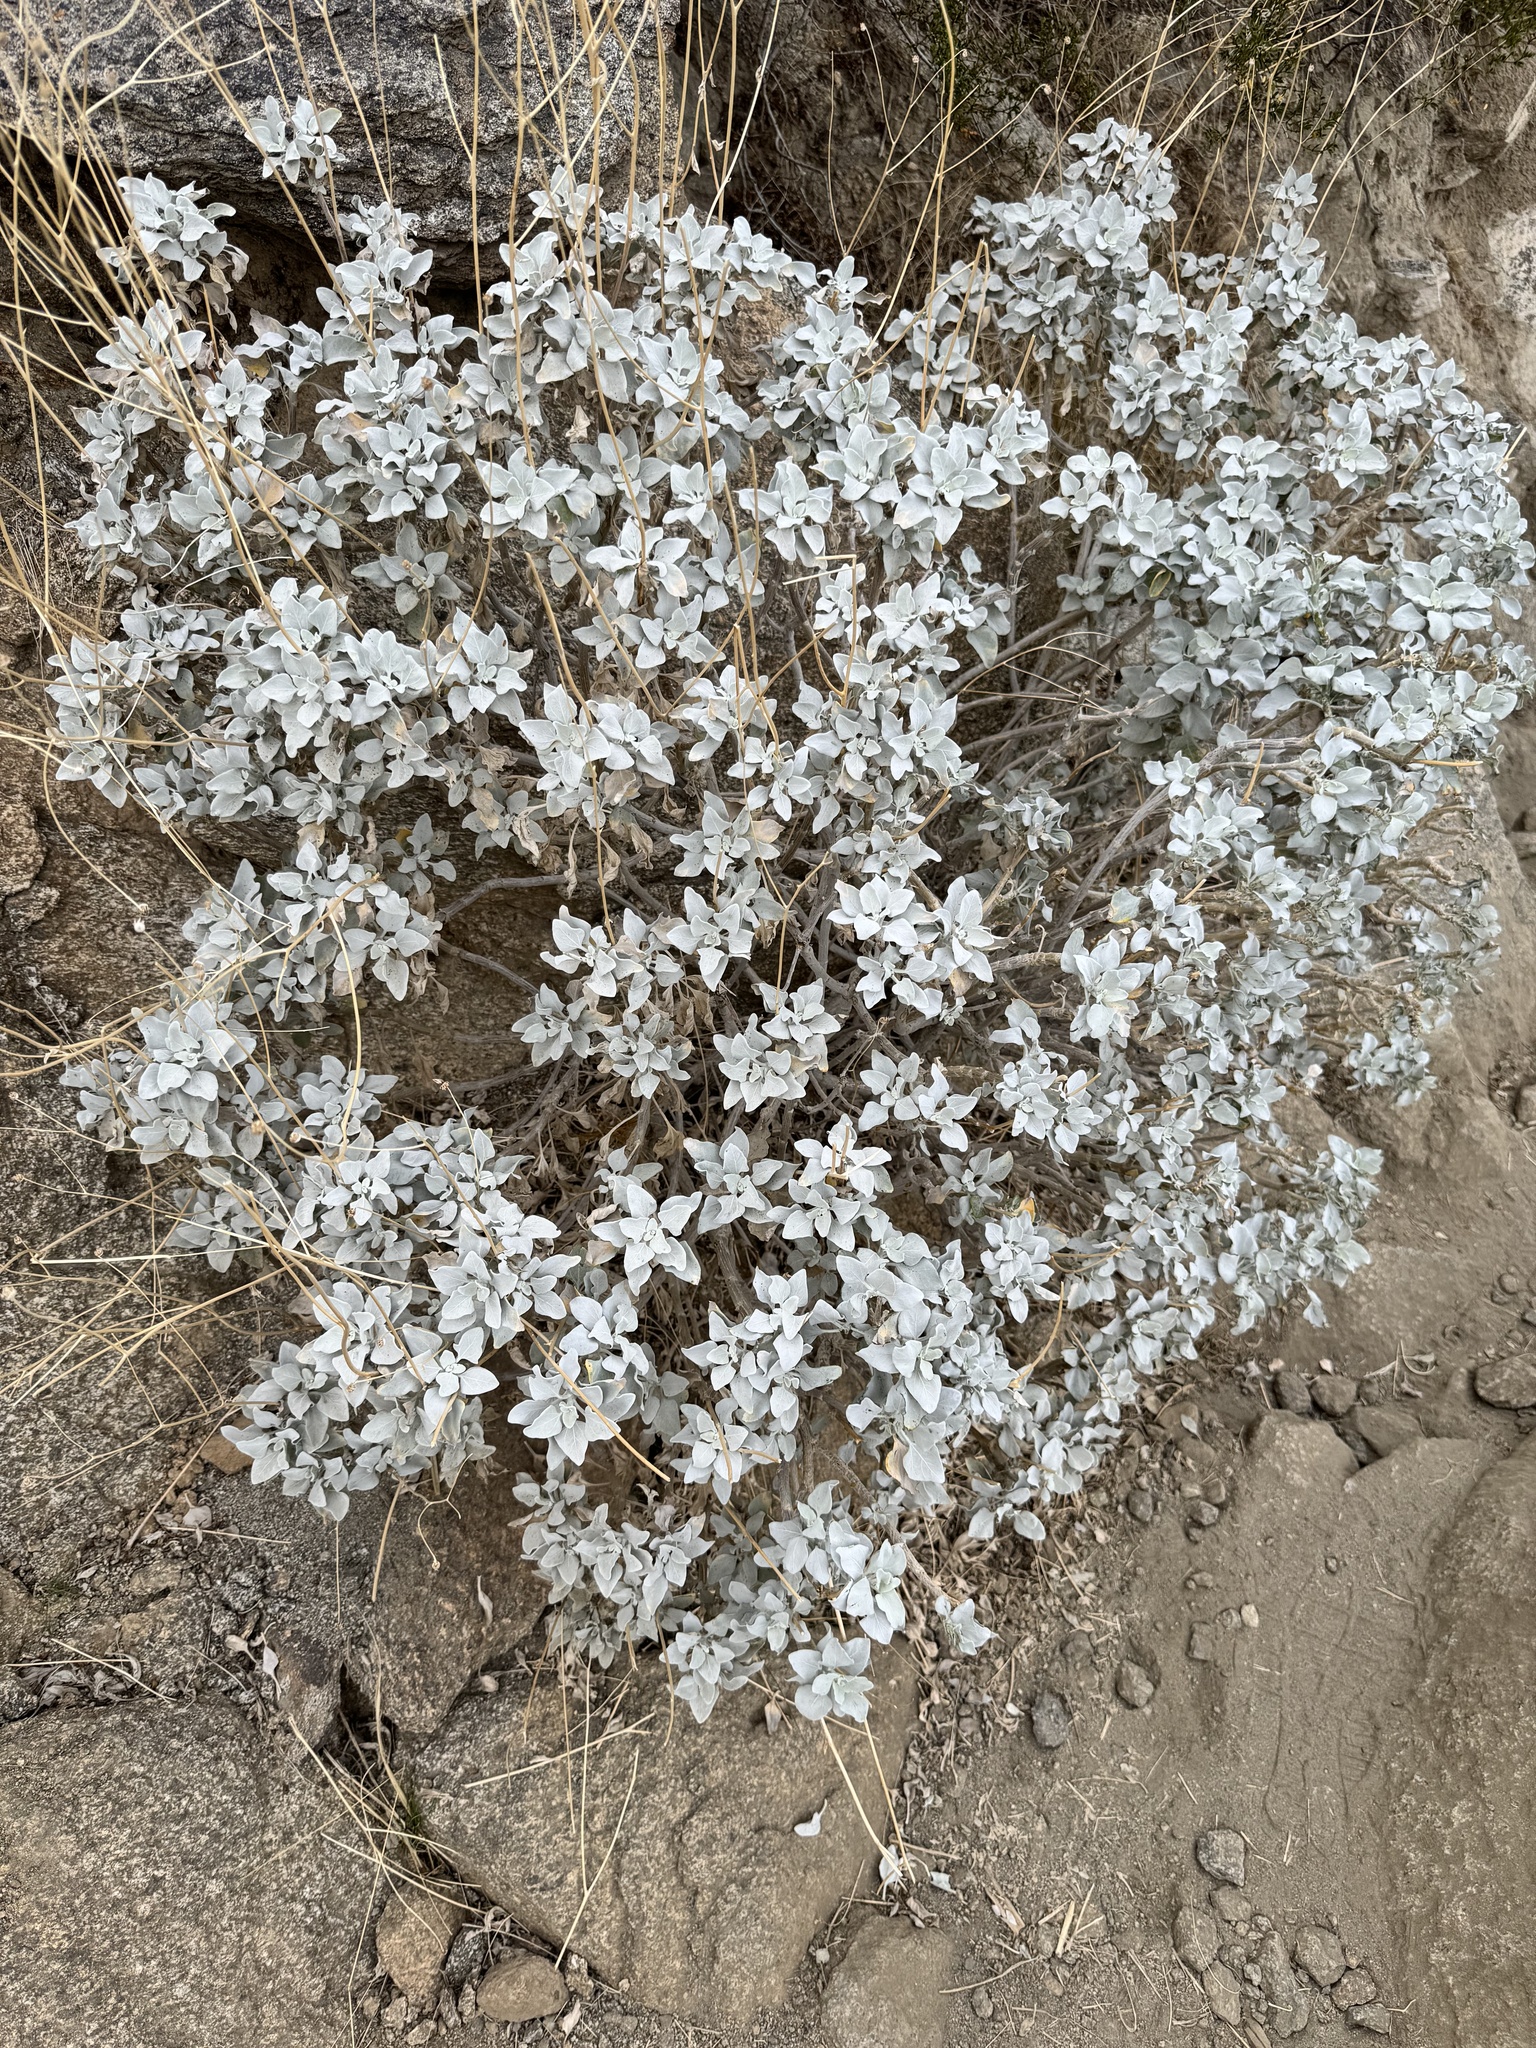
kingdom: Plantae
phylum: Tracheophyta
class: Magnoliopsida
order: Asterales
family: Asteraceae
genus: Encelia
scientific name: Encelia farinosa
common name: Brittlebush
